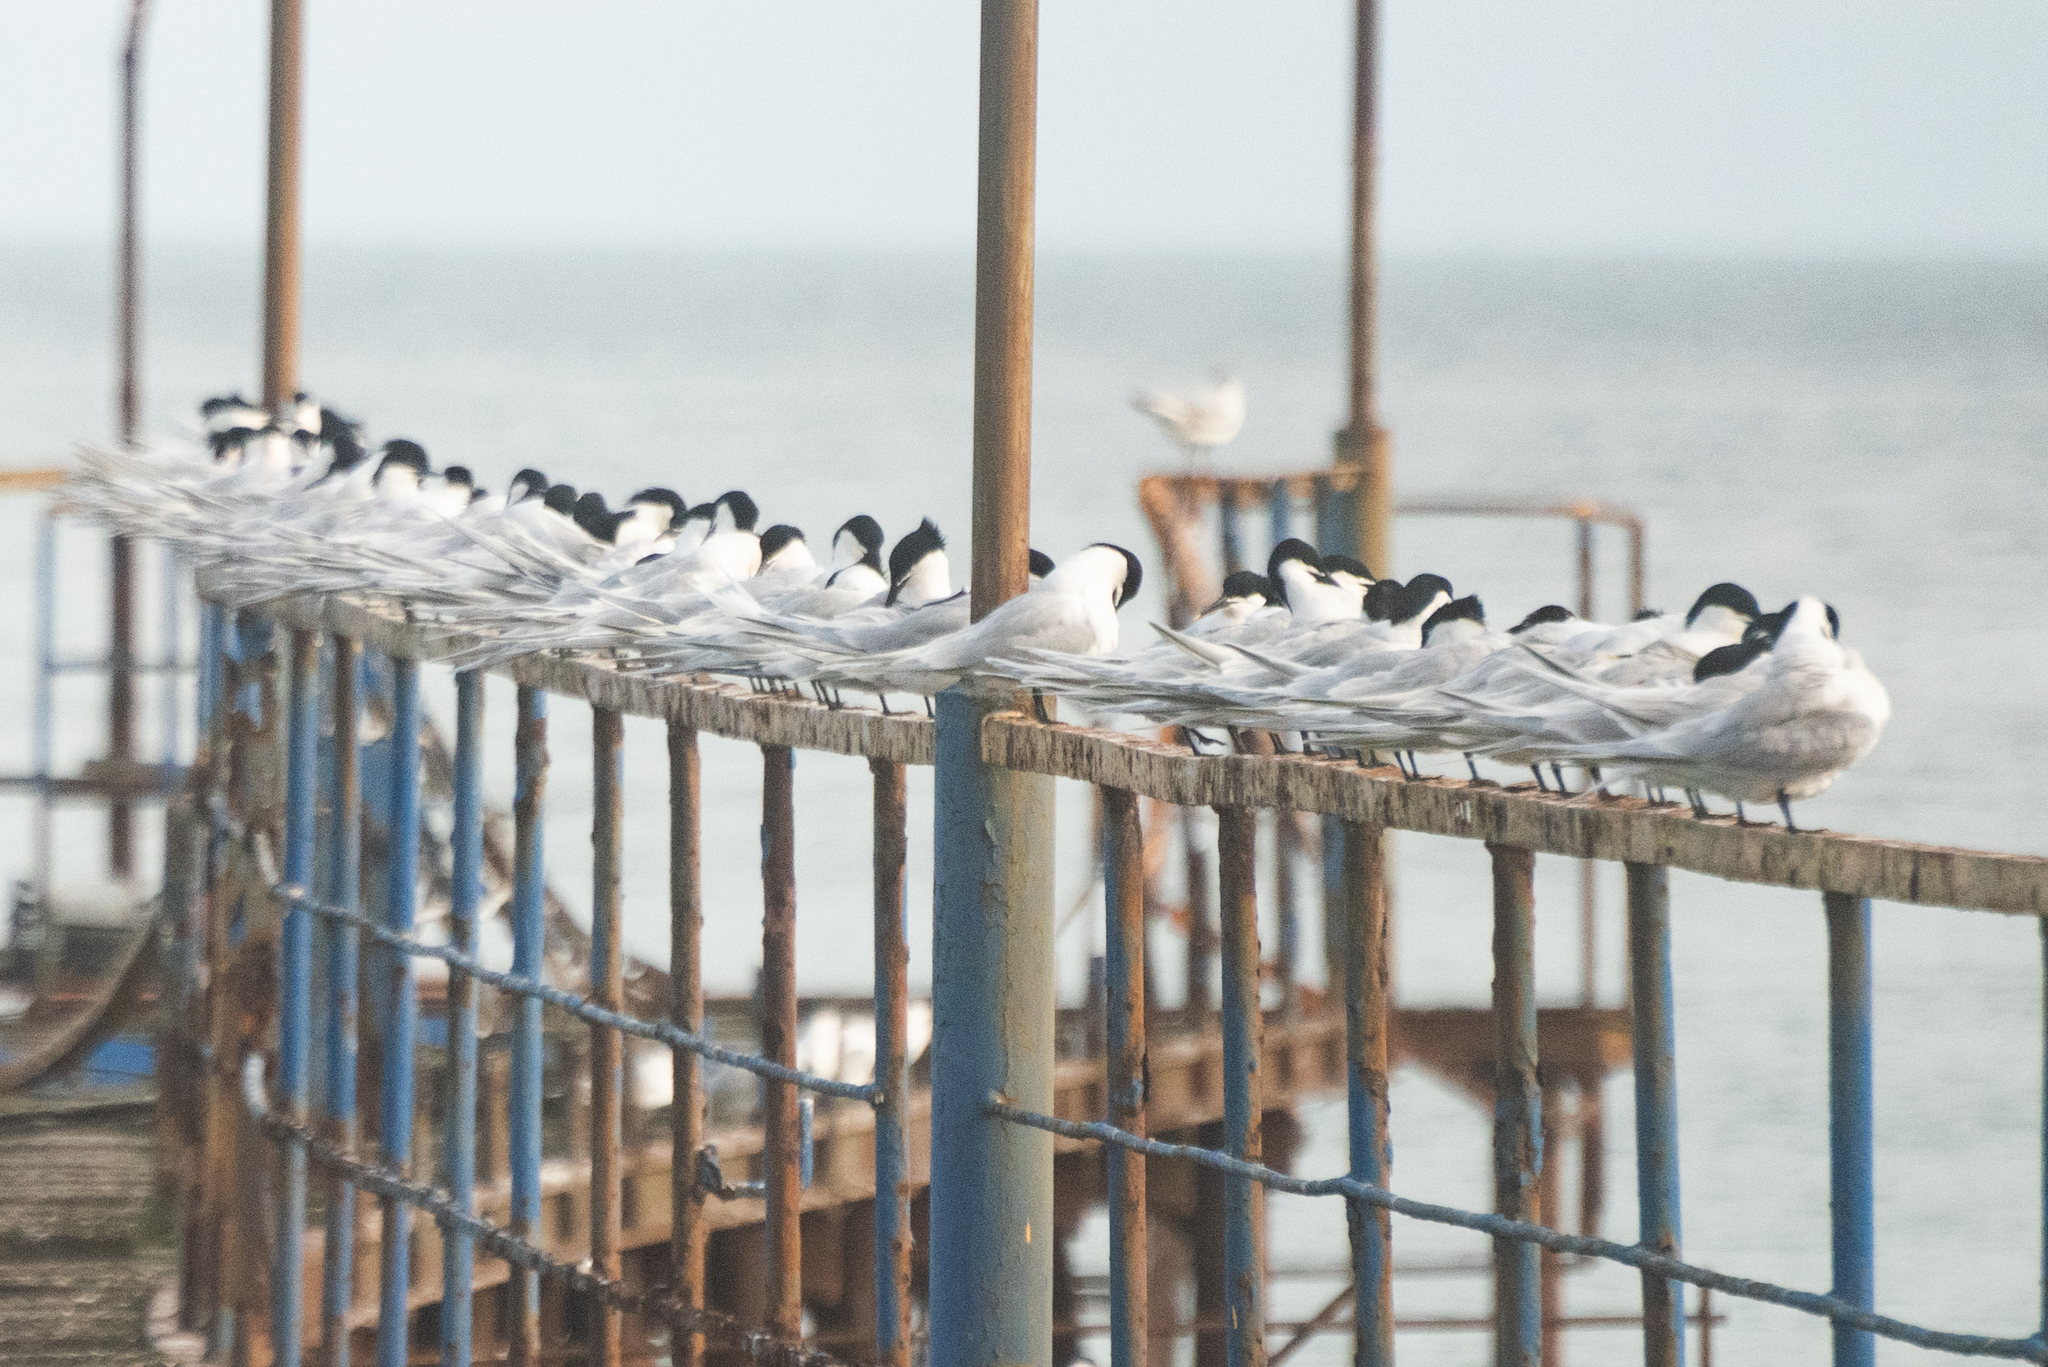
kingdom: Animalia
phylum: Chordata
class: Aves
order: Charadriiformes
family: Laridae
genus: Thalasseus
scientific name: Thalasseus sandvicensis
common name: Sandwich tern
